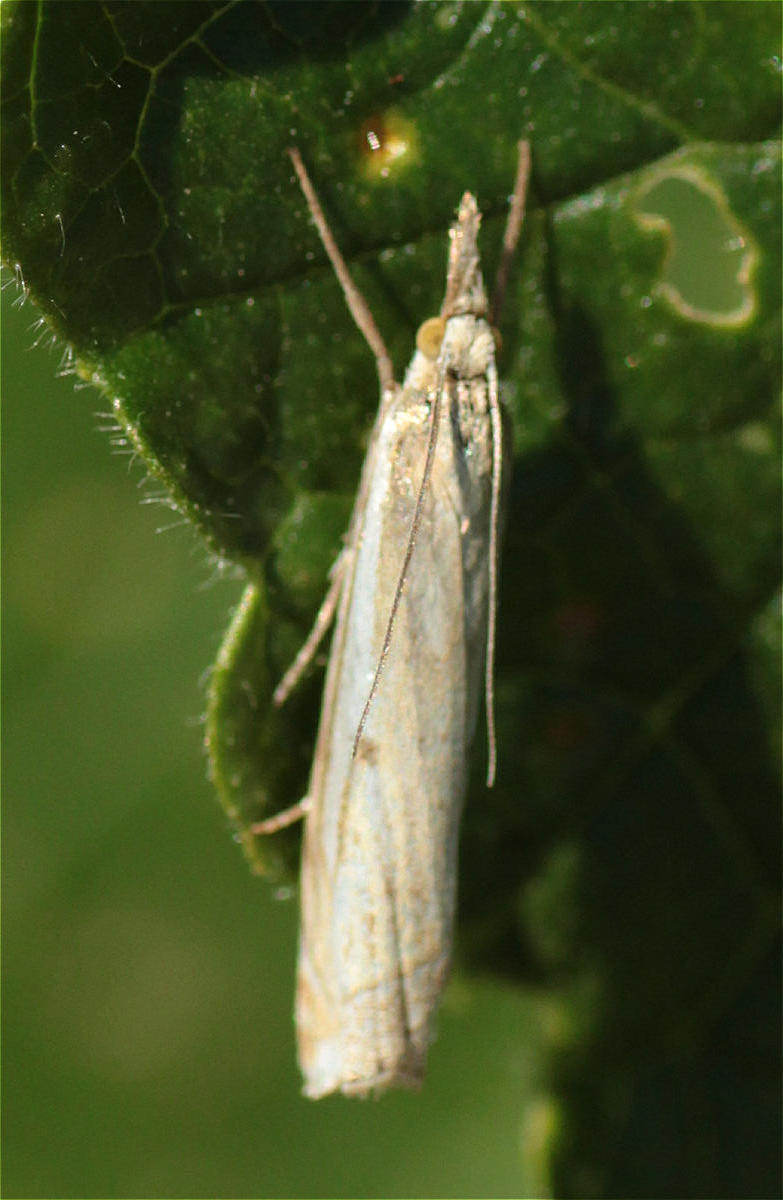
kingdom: Animalia
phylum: Arthropoda
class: Insecta
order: Lepidoptera
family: Crambidae
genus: Crambus
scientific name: Crambus pratella
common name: Scarce grass-veneer
